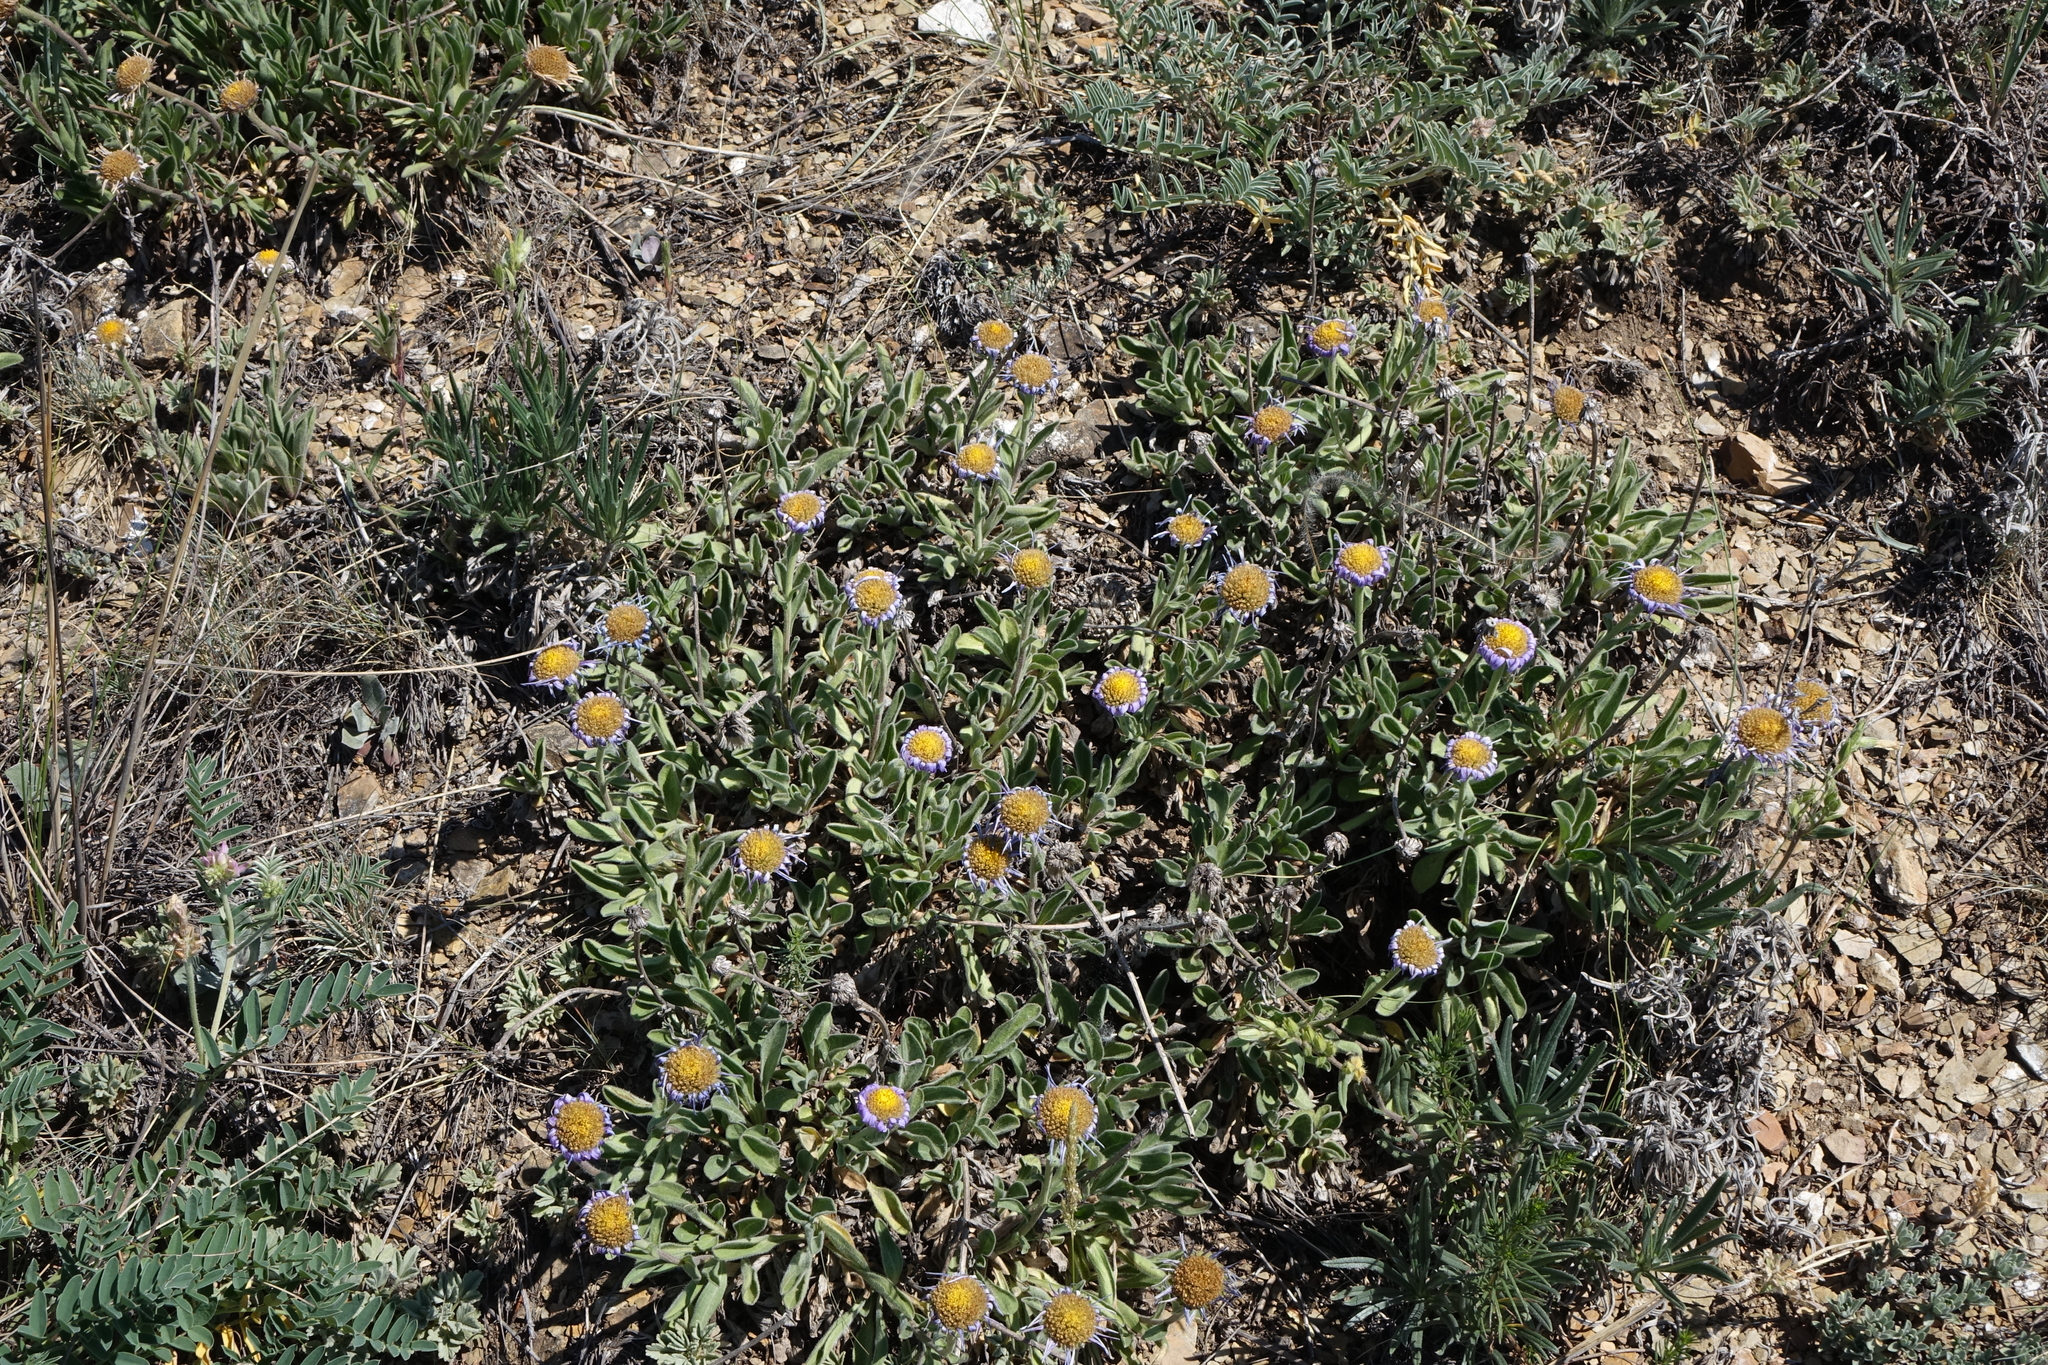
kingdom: Plantae
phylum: Tracheophyta
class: Magnoliopsida
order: Asterales
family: Asteraceae
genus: Aster
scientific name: Aster alpinus
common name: Alpine aster
